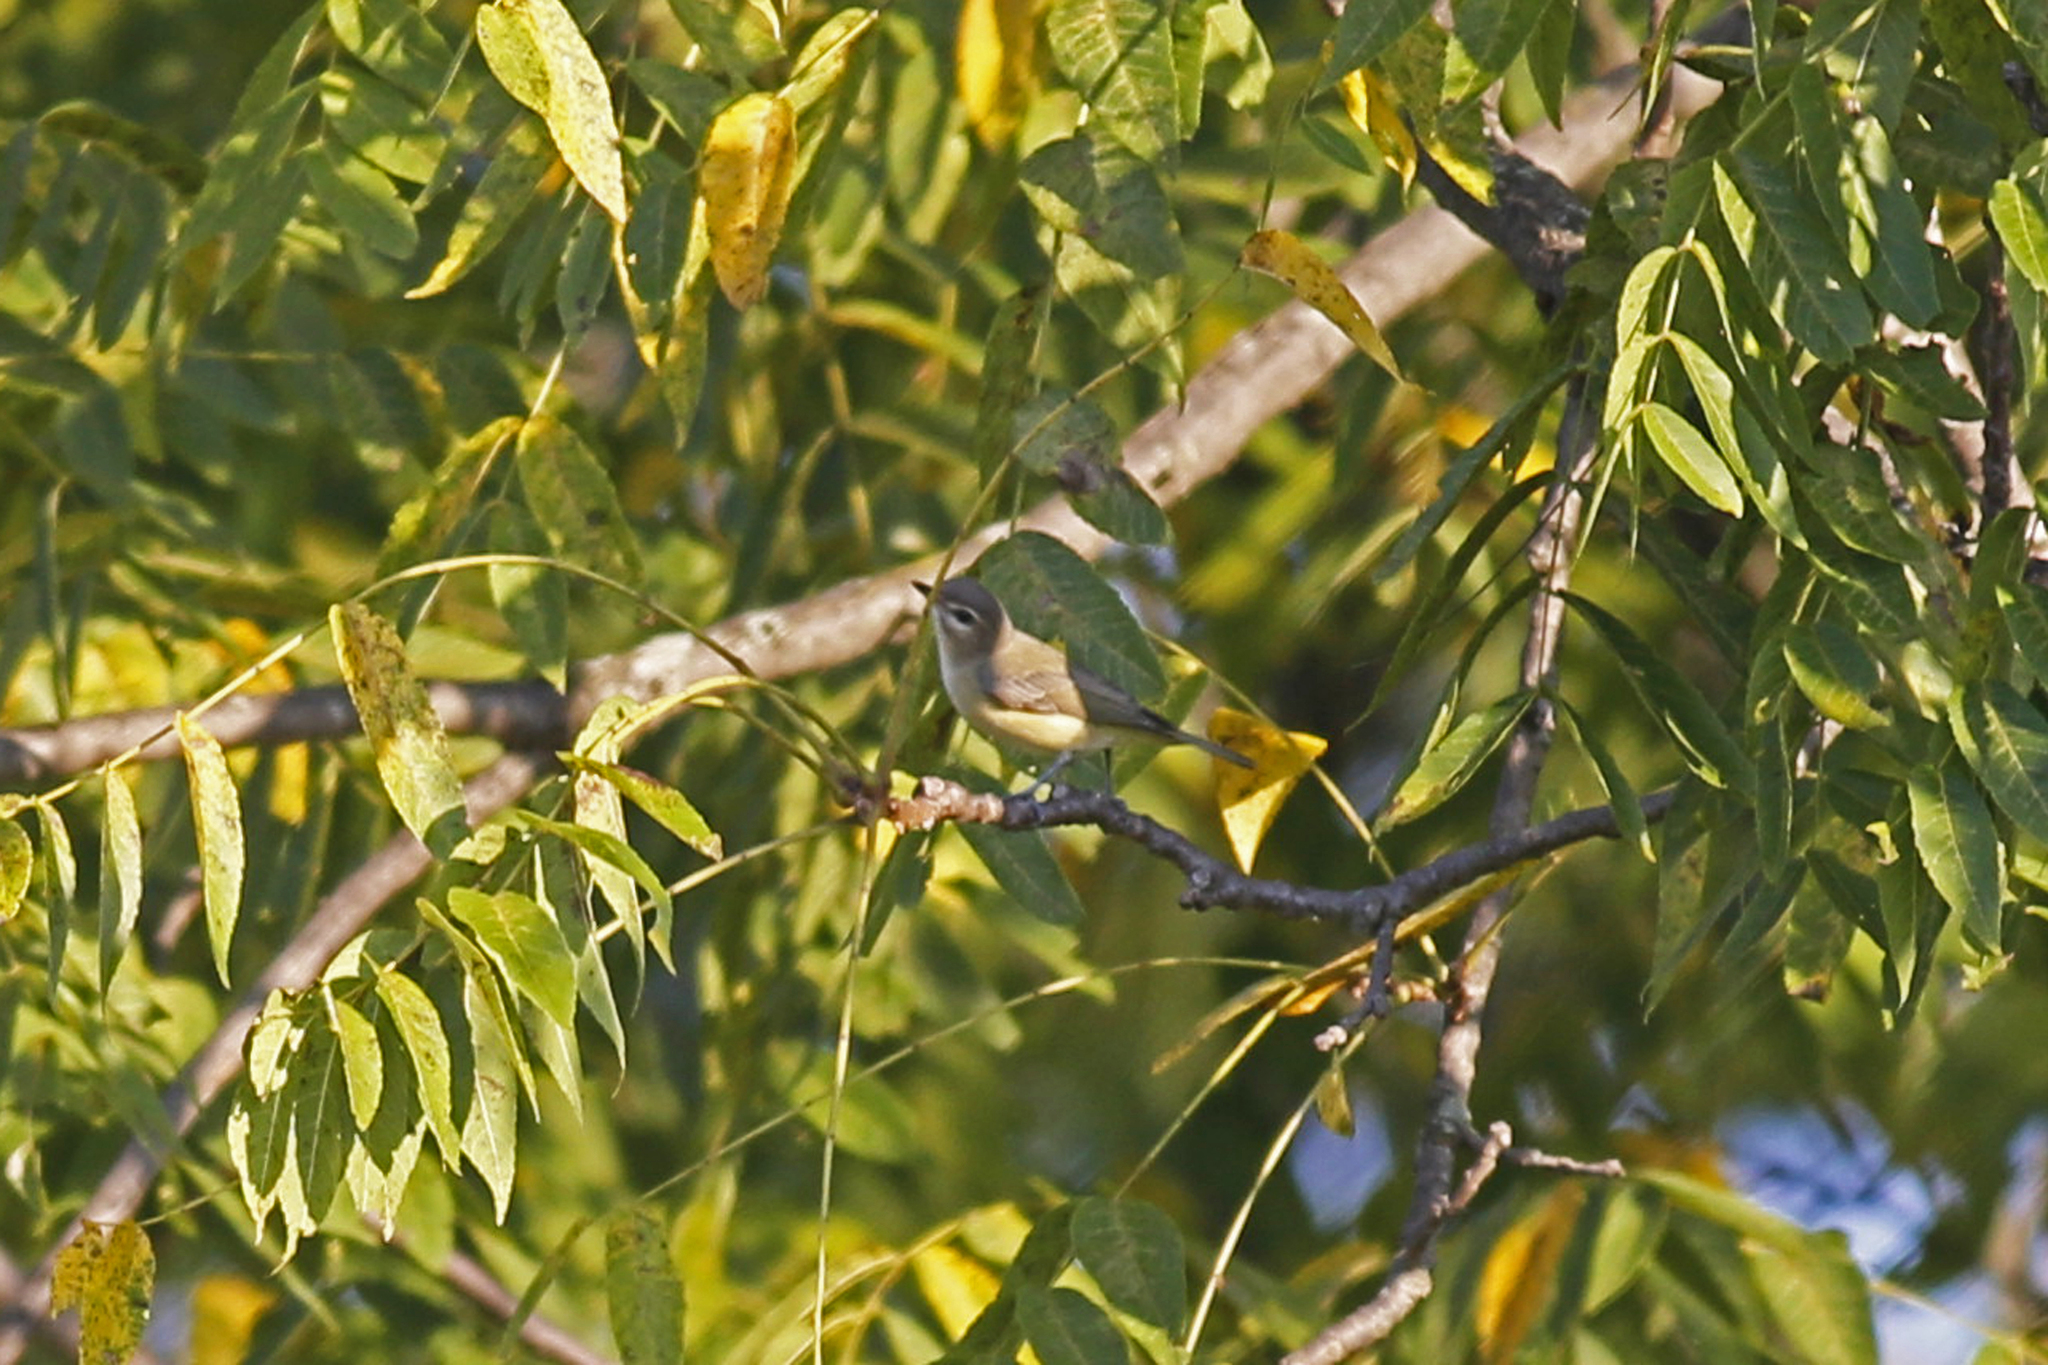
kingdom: Animalia
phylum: Chordata
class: Aves
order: Passeriformes
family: Vireonidae
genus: Vireo
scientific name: Vireo philadelphicus
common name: Philadelphia vireo
